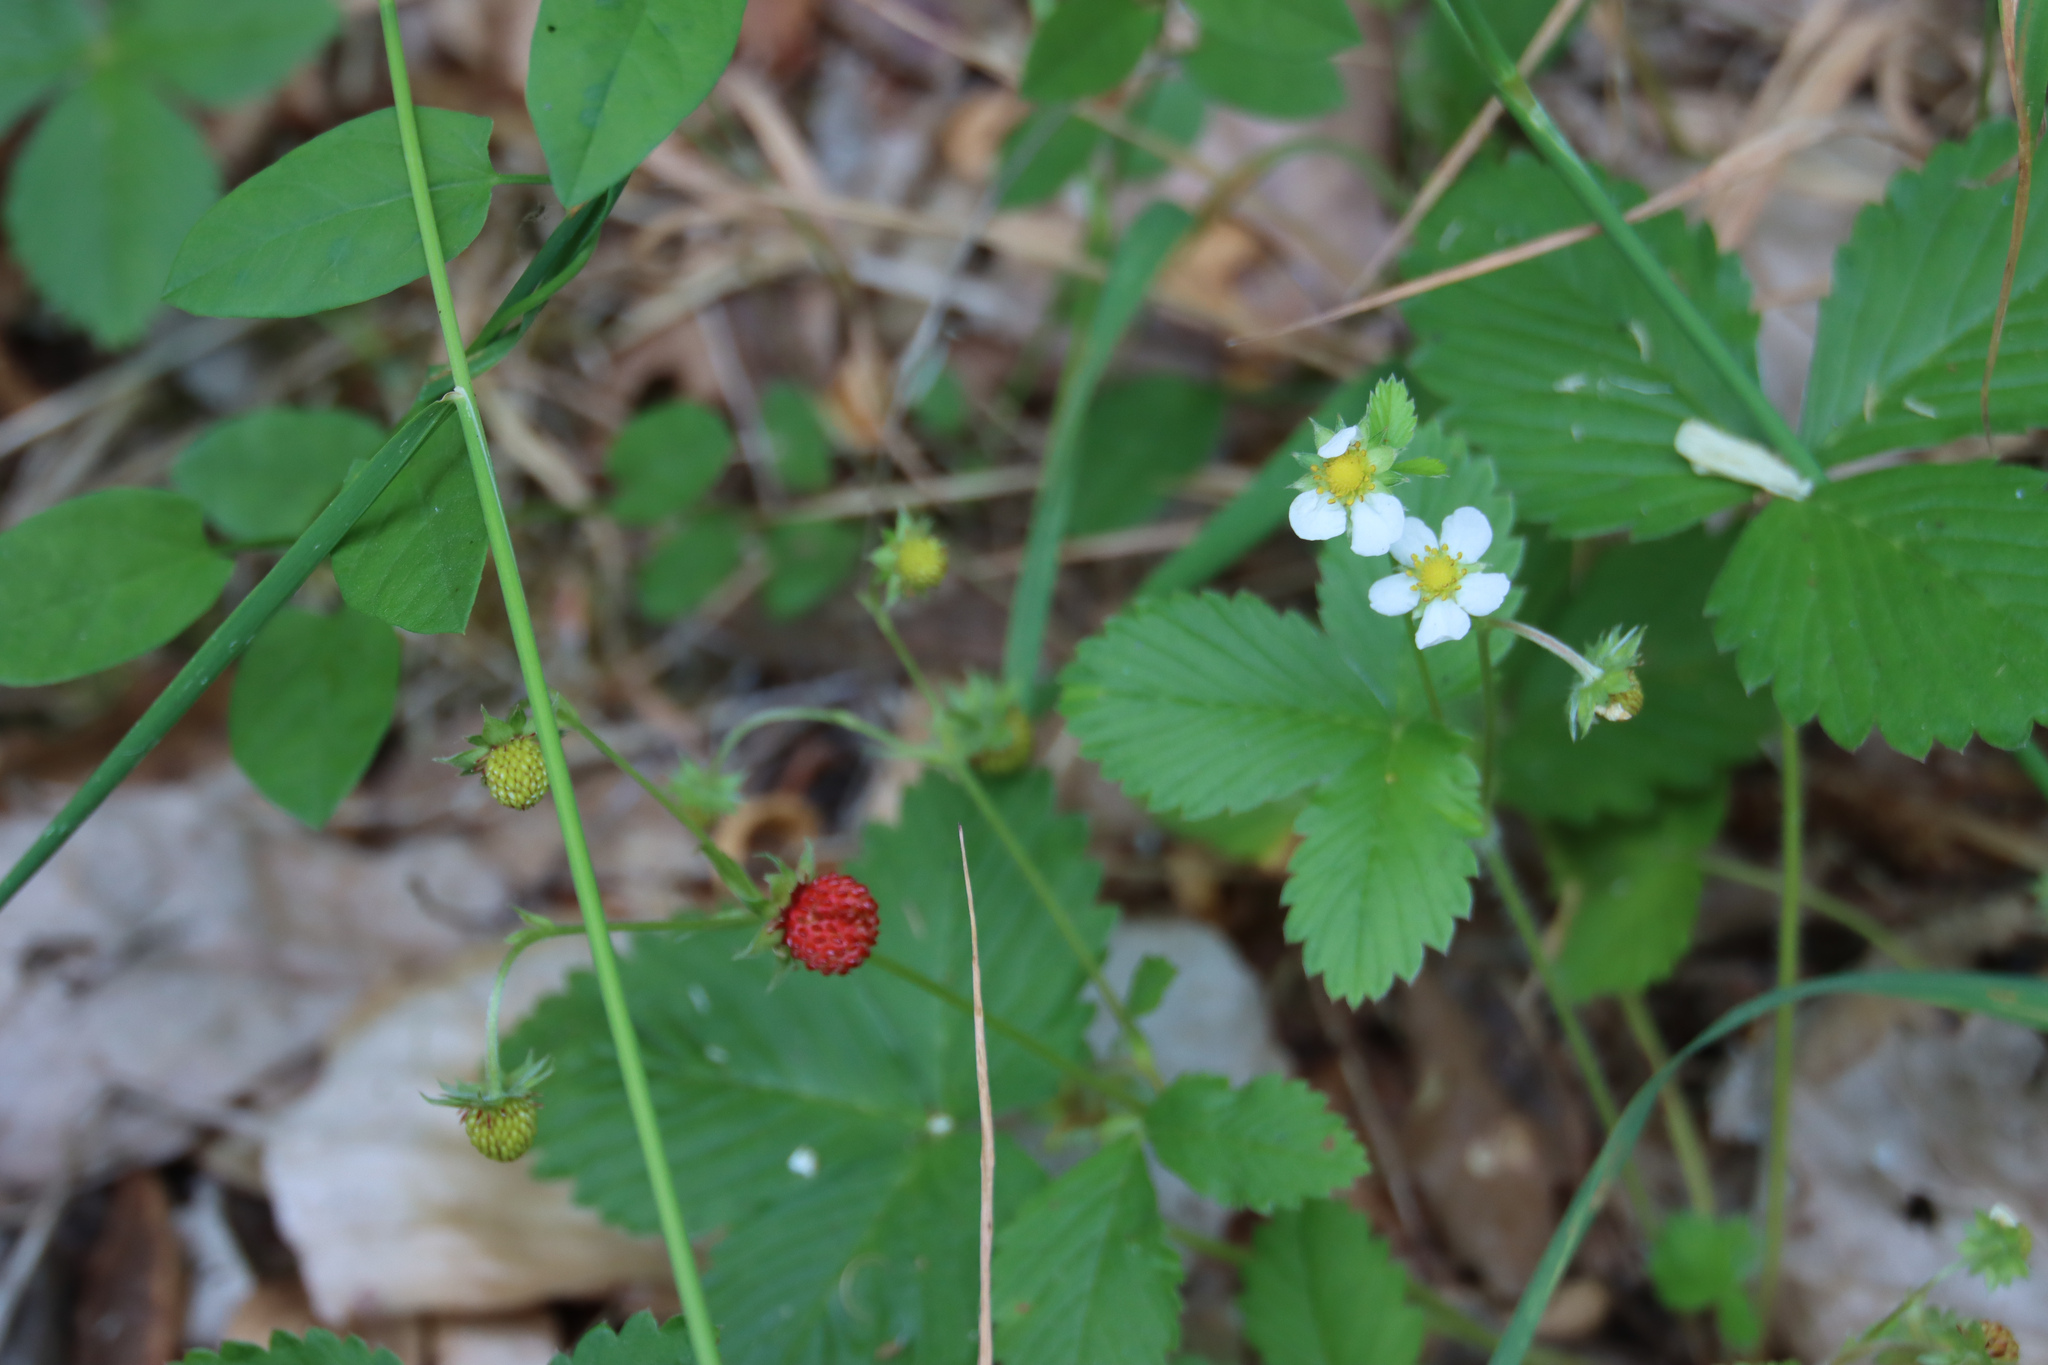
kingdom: Plantae
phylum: Tracheophyta
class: Magnoliopsida
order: Rosales
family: Rosaceae
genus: Fragaria
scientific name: Fragaria vesca
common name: Wild strawberry
